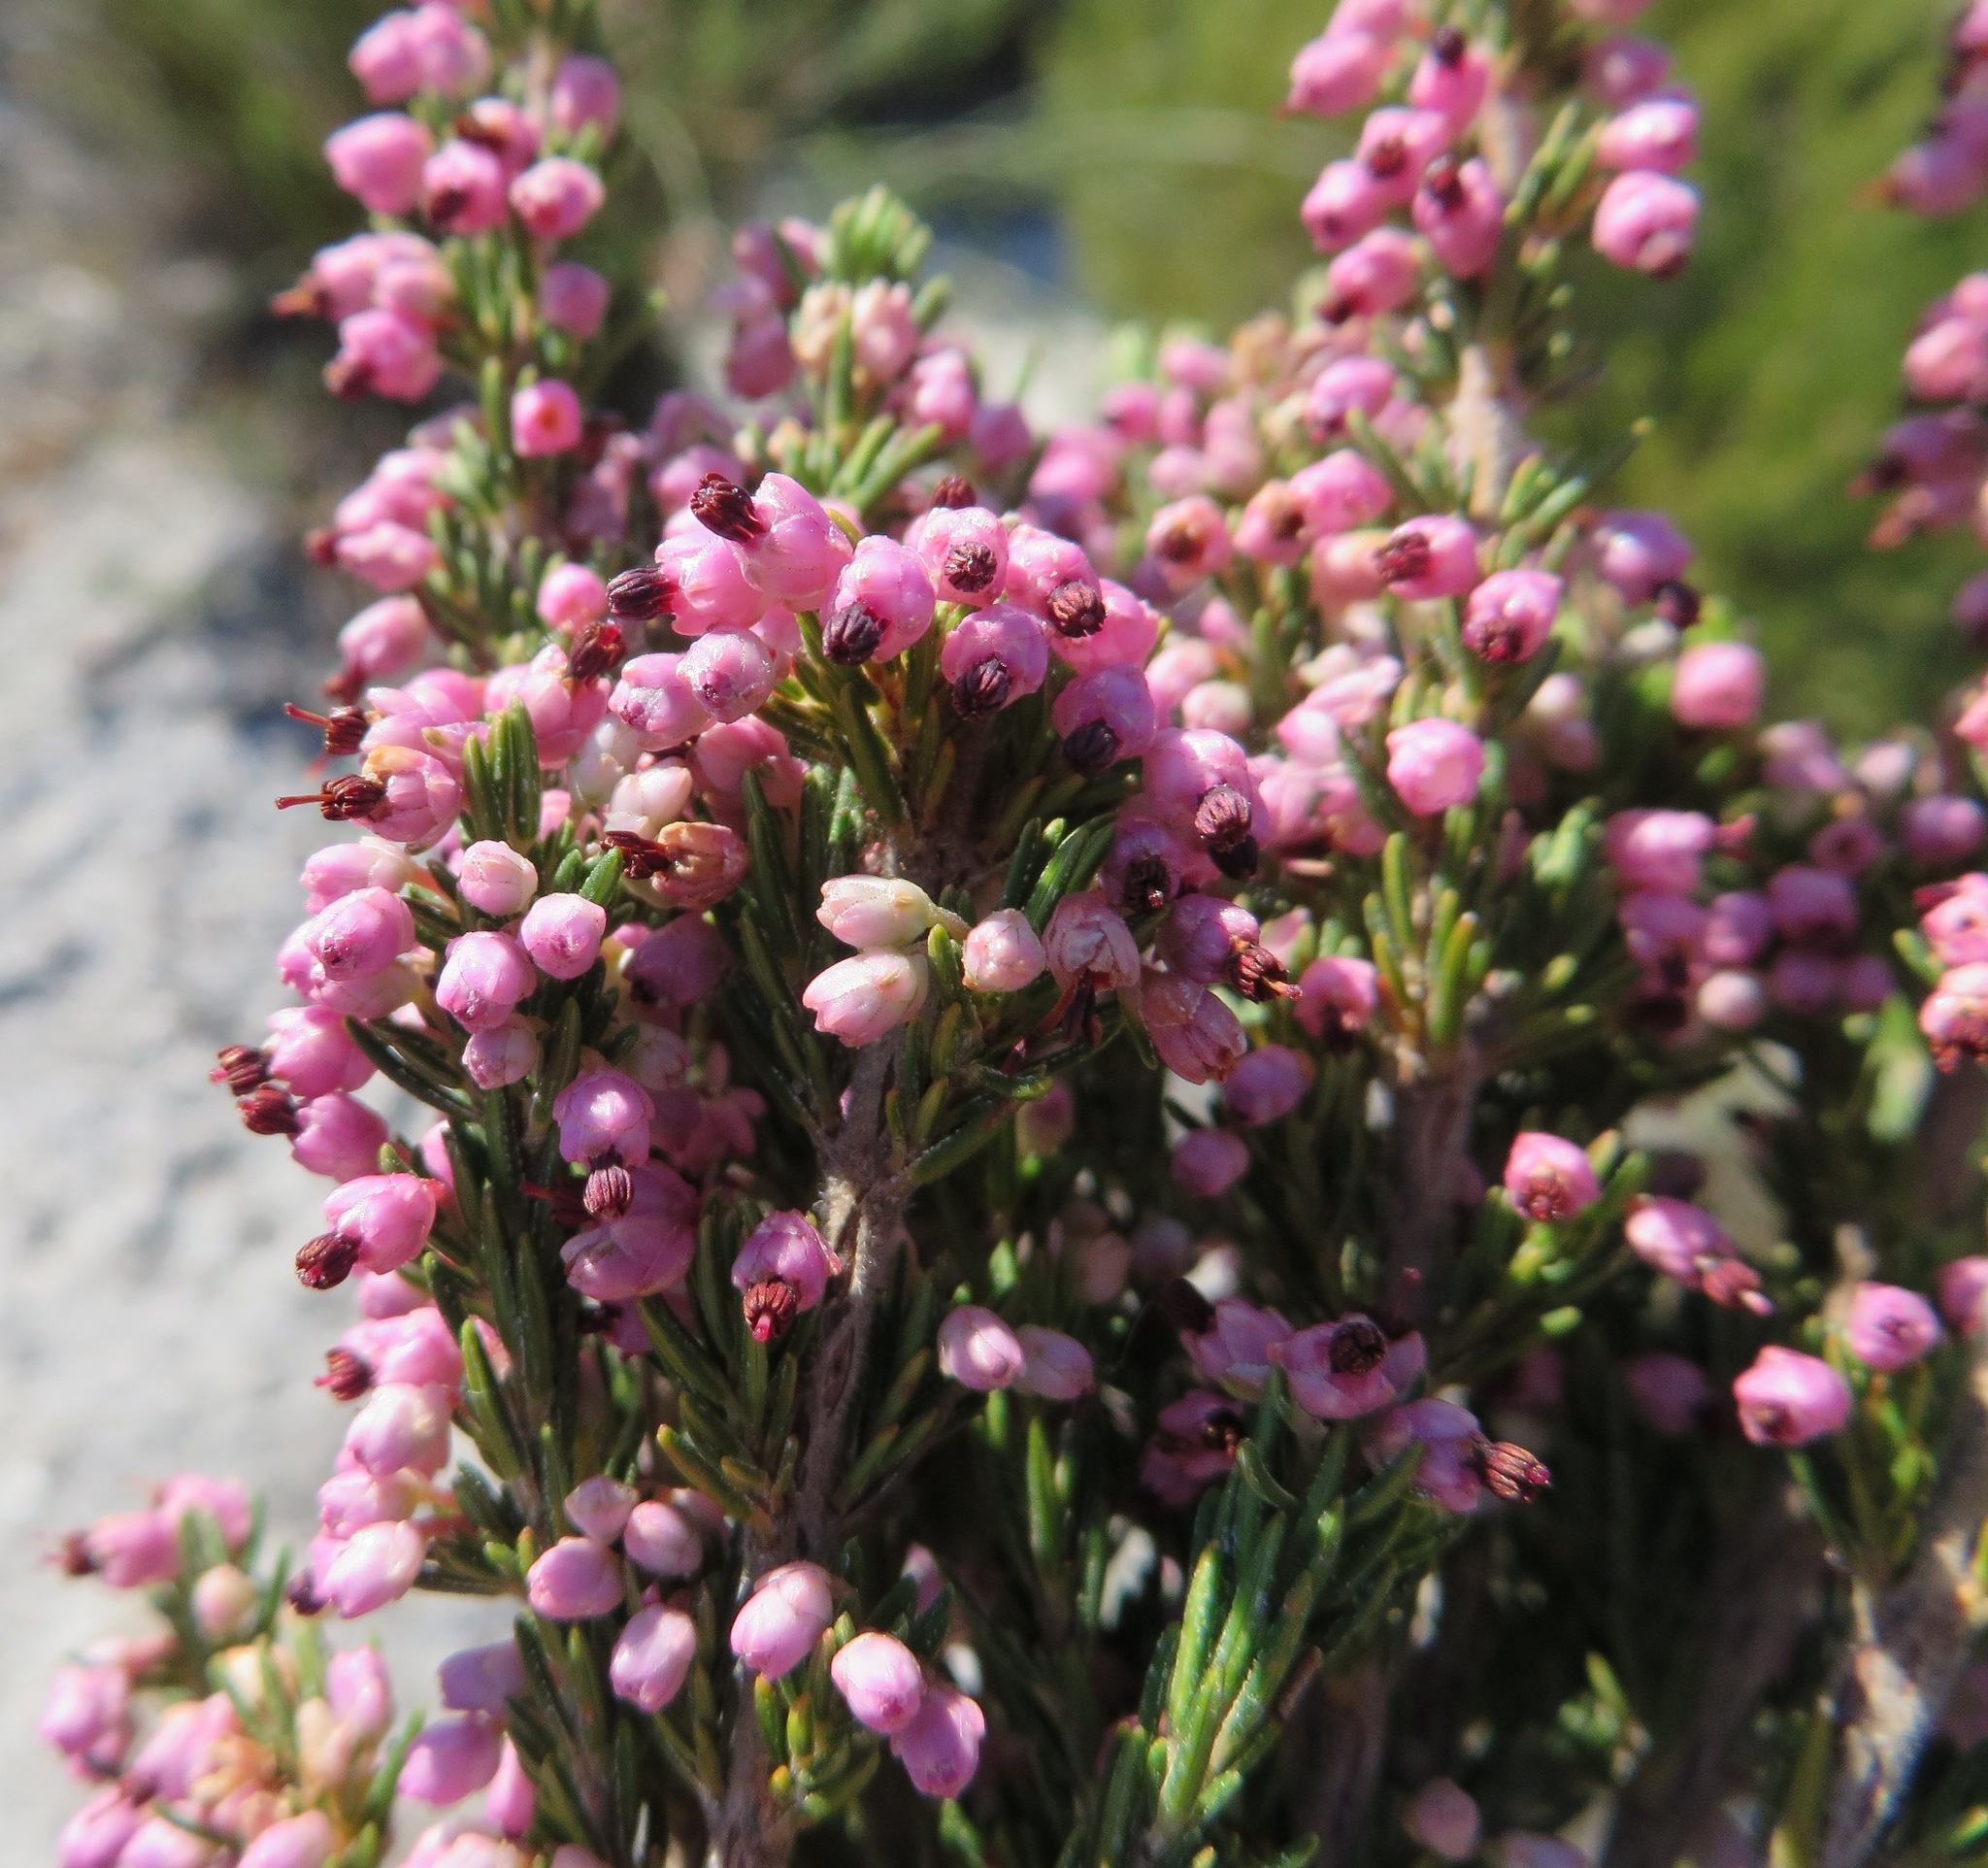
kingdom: Plantae
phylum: Tracheophyta
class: Magnoliopsida
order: Ericales
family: Ericaceae
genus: Erica
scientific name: Erica placentiflora
